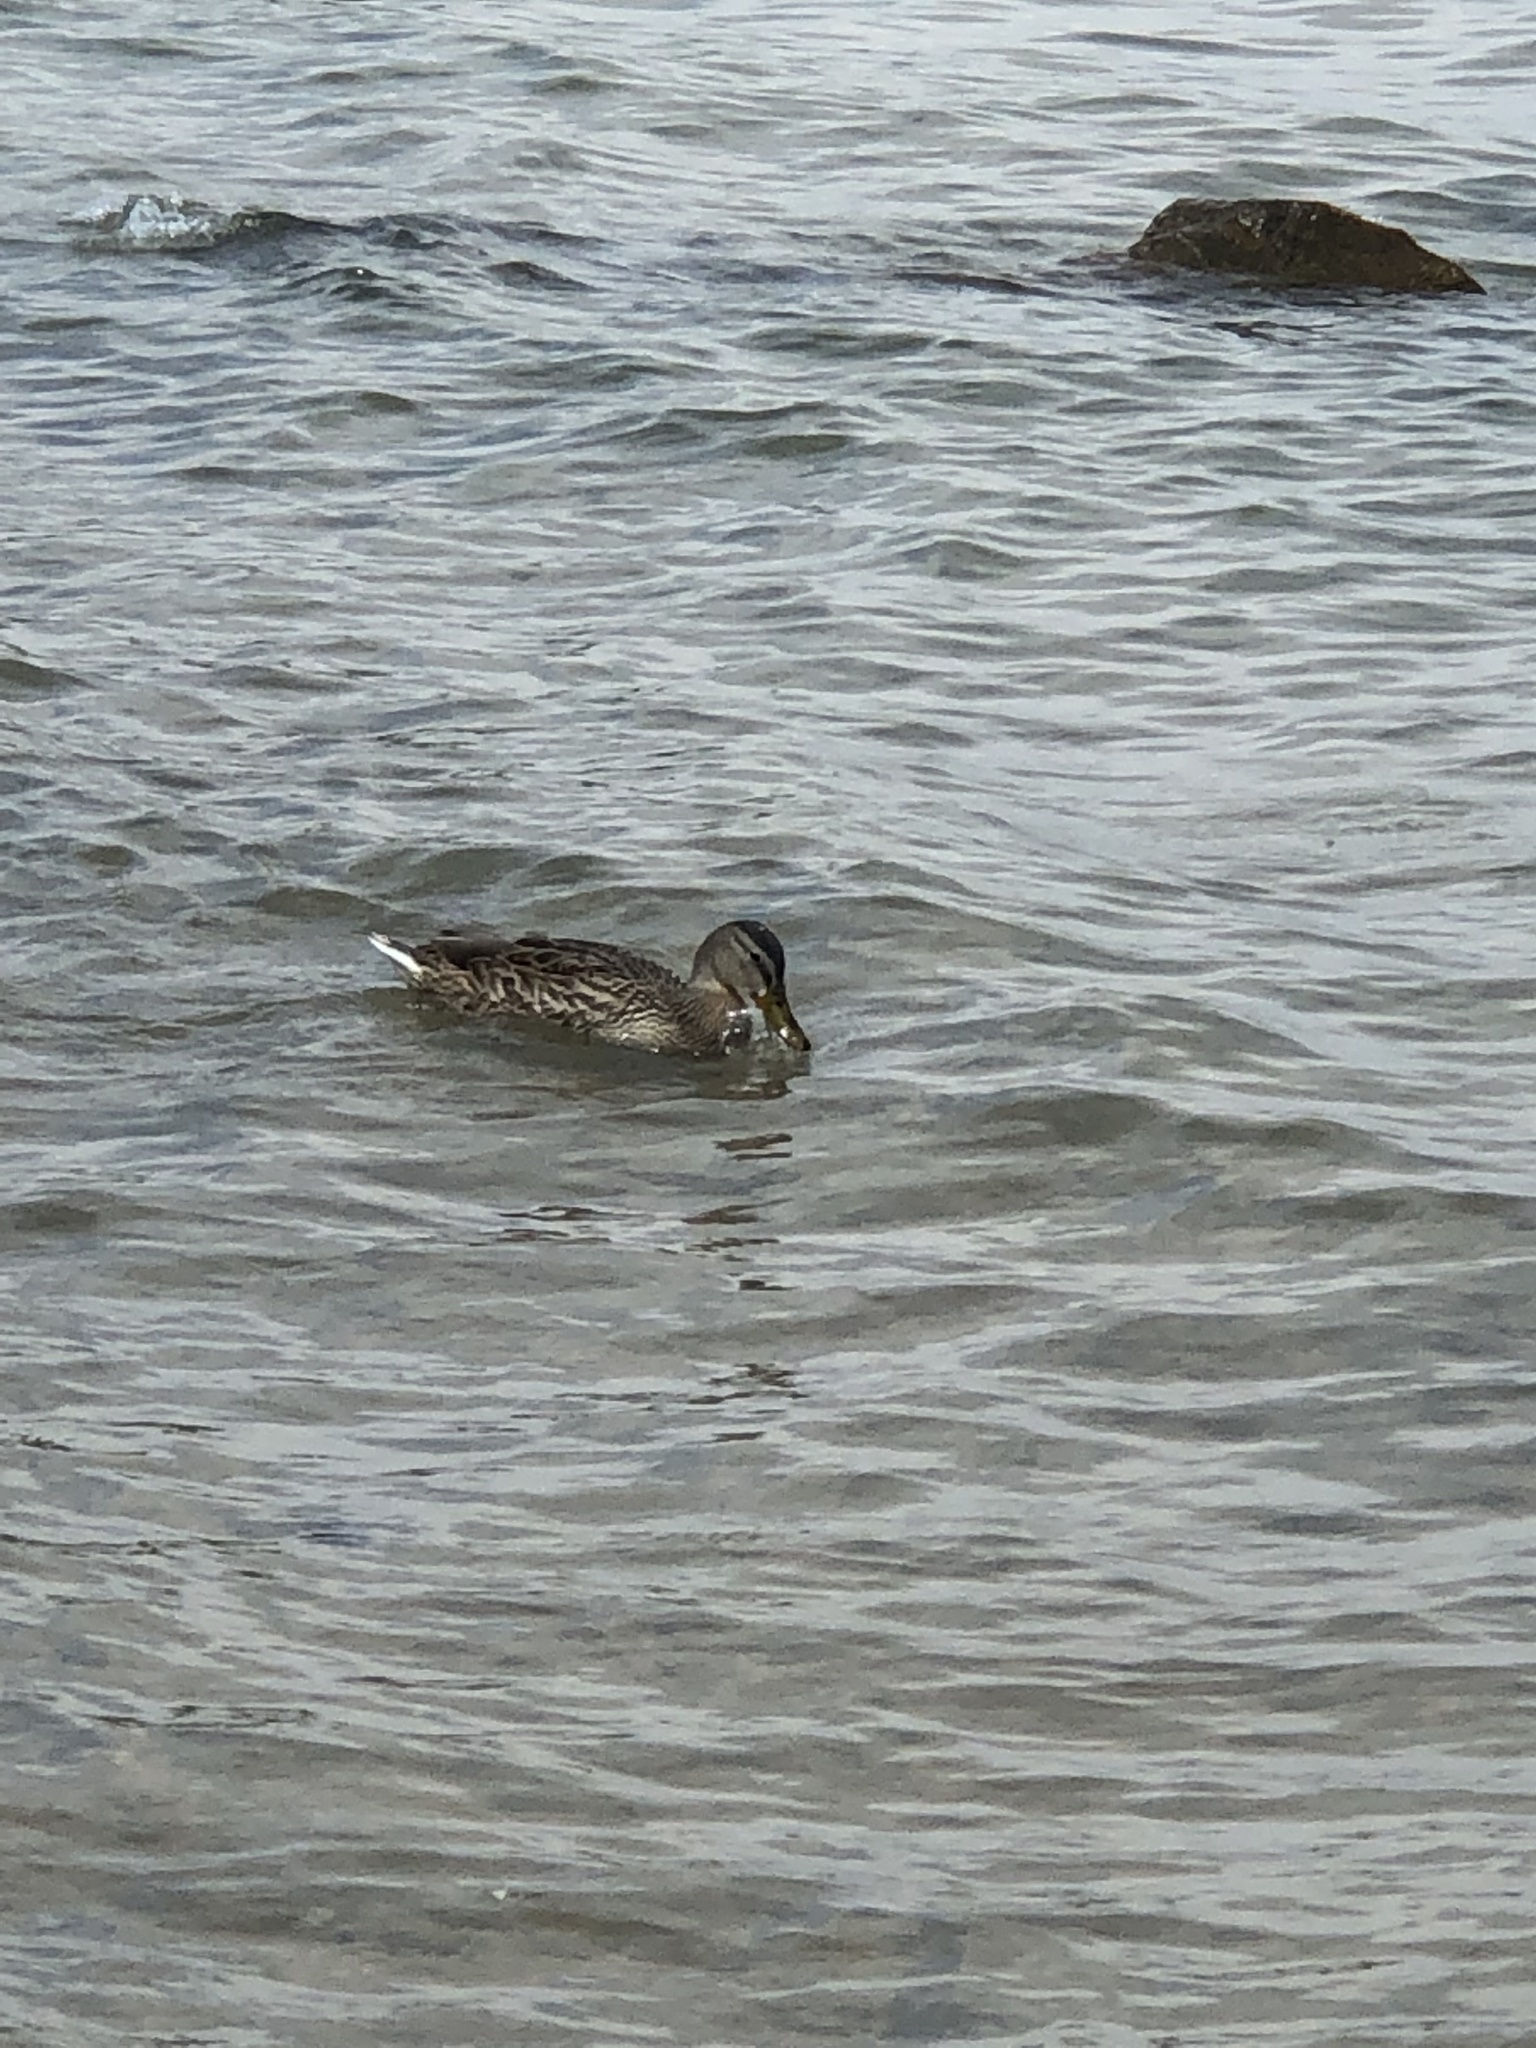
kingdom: Animalia
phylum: Chordata
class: Aves
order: Anseriformes
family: Anatidae
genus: Anas
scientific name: Anas platyrhynchos
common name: Mallard
